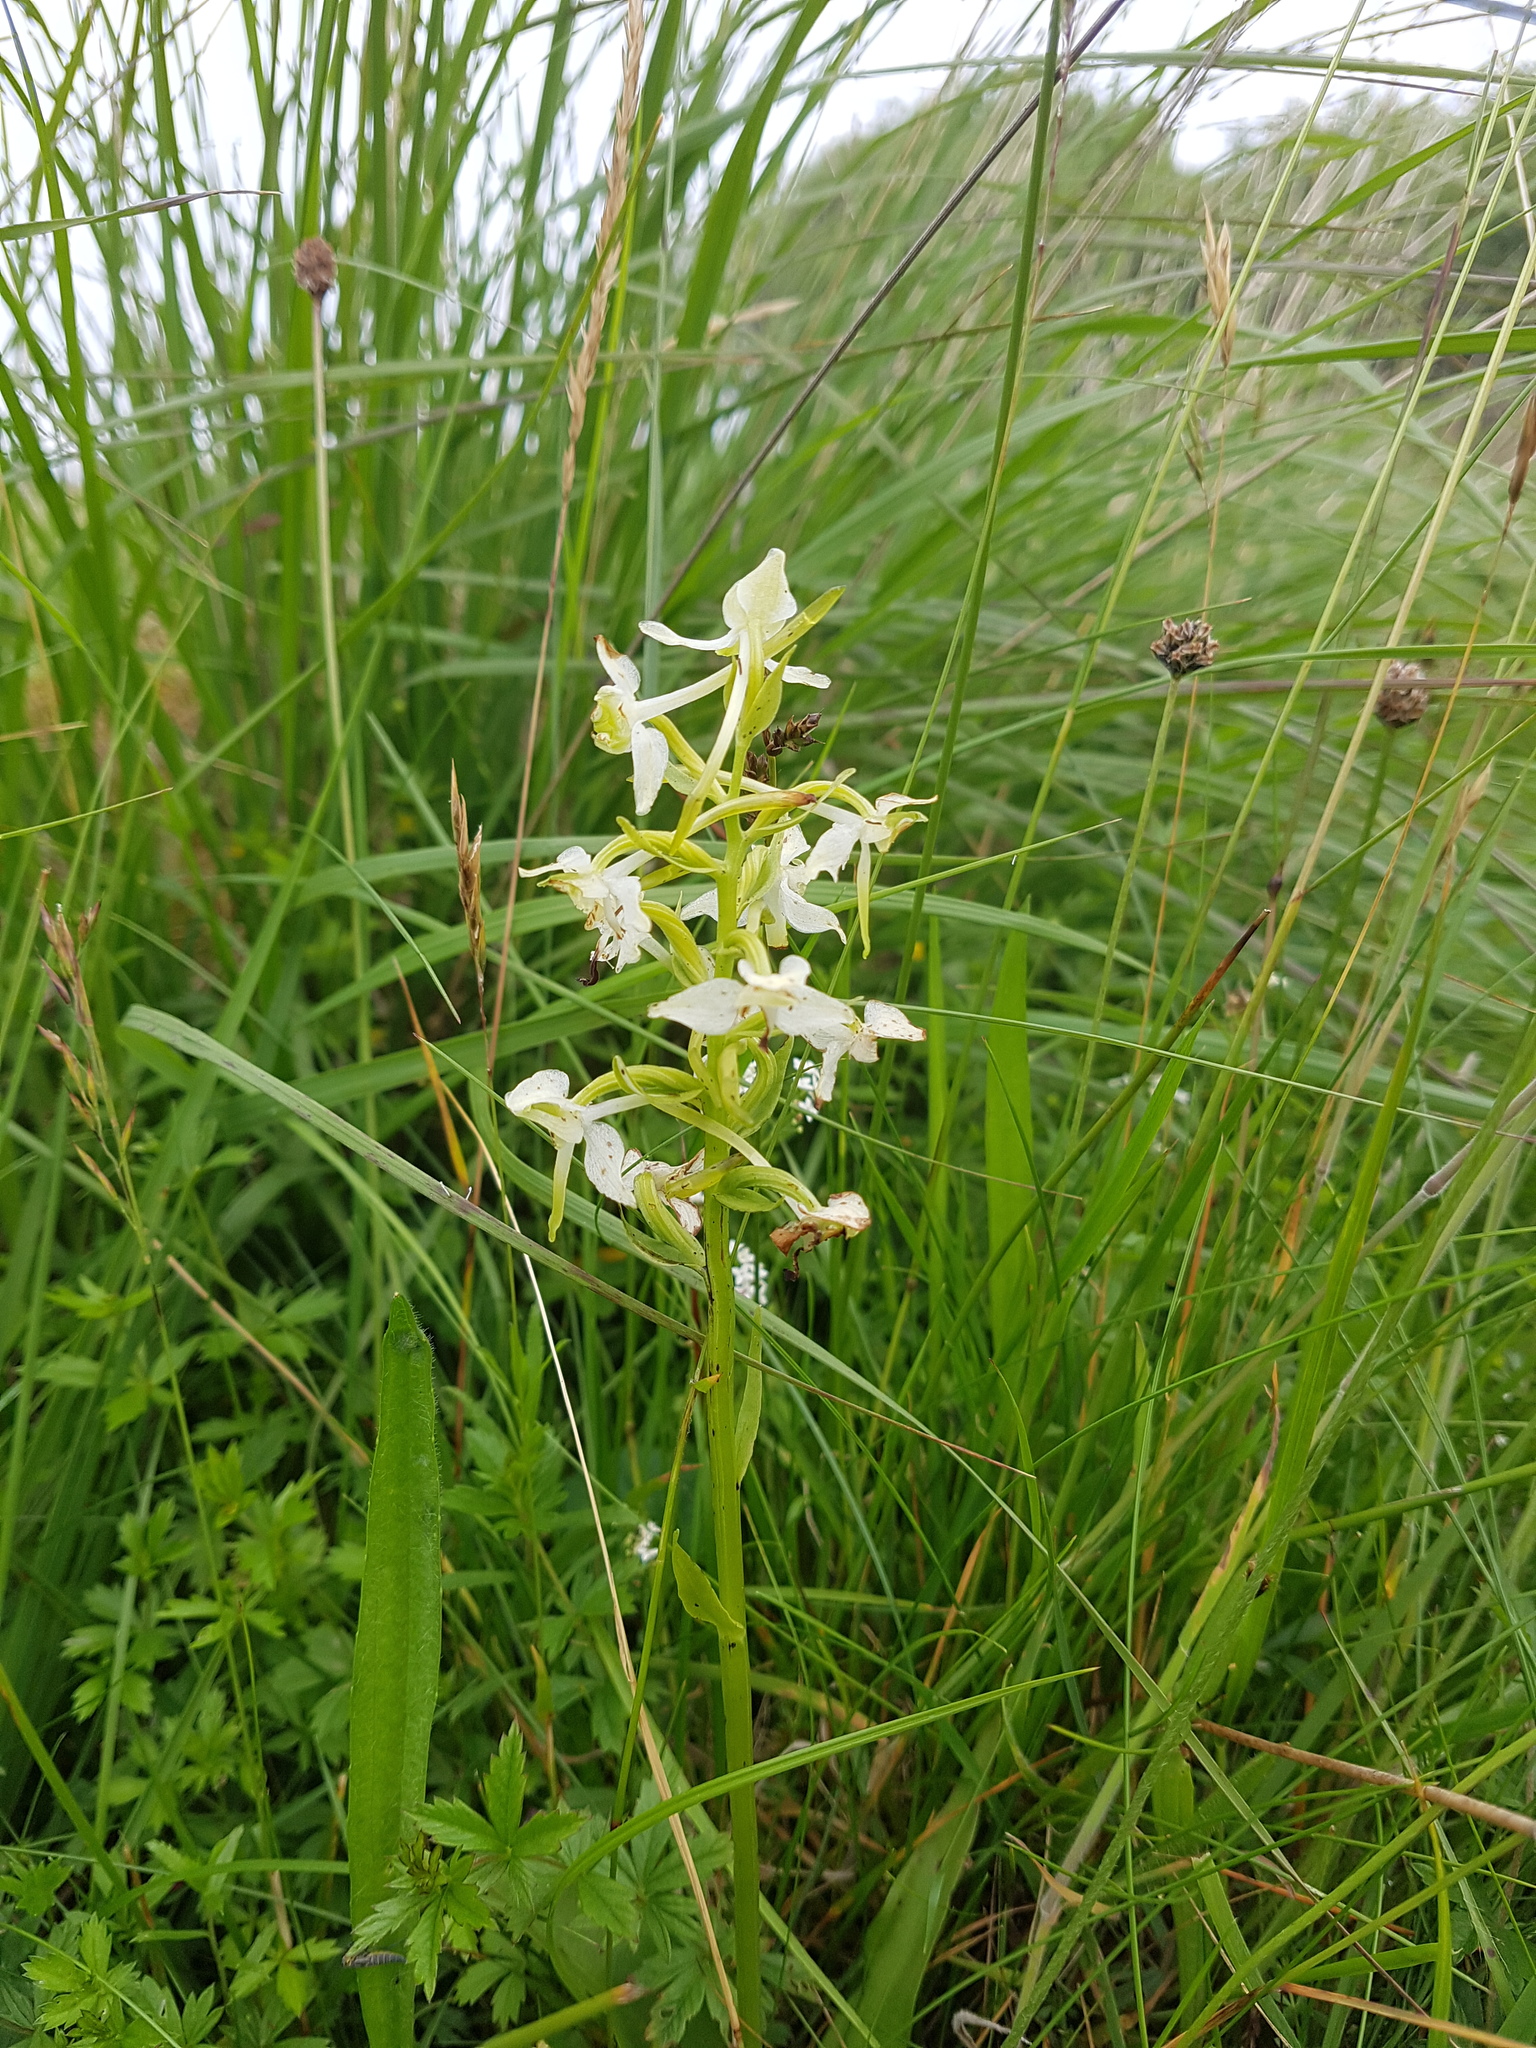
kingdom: Plantae
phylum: Tracheophyta
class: Liliopsida
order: Asparagales
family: Orchidaceae
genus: Platanthera
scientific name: Platanthera chlorantha
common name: Greater butterfly-orchid
